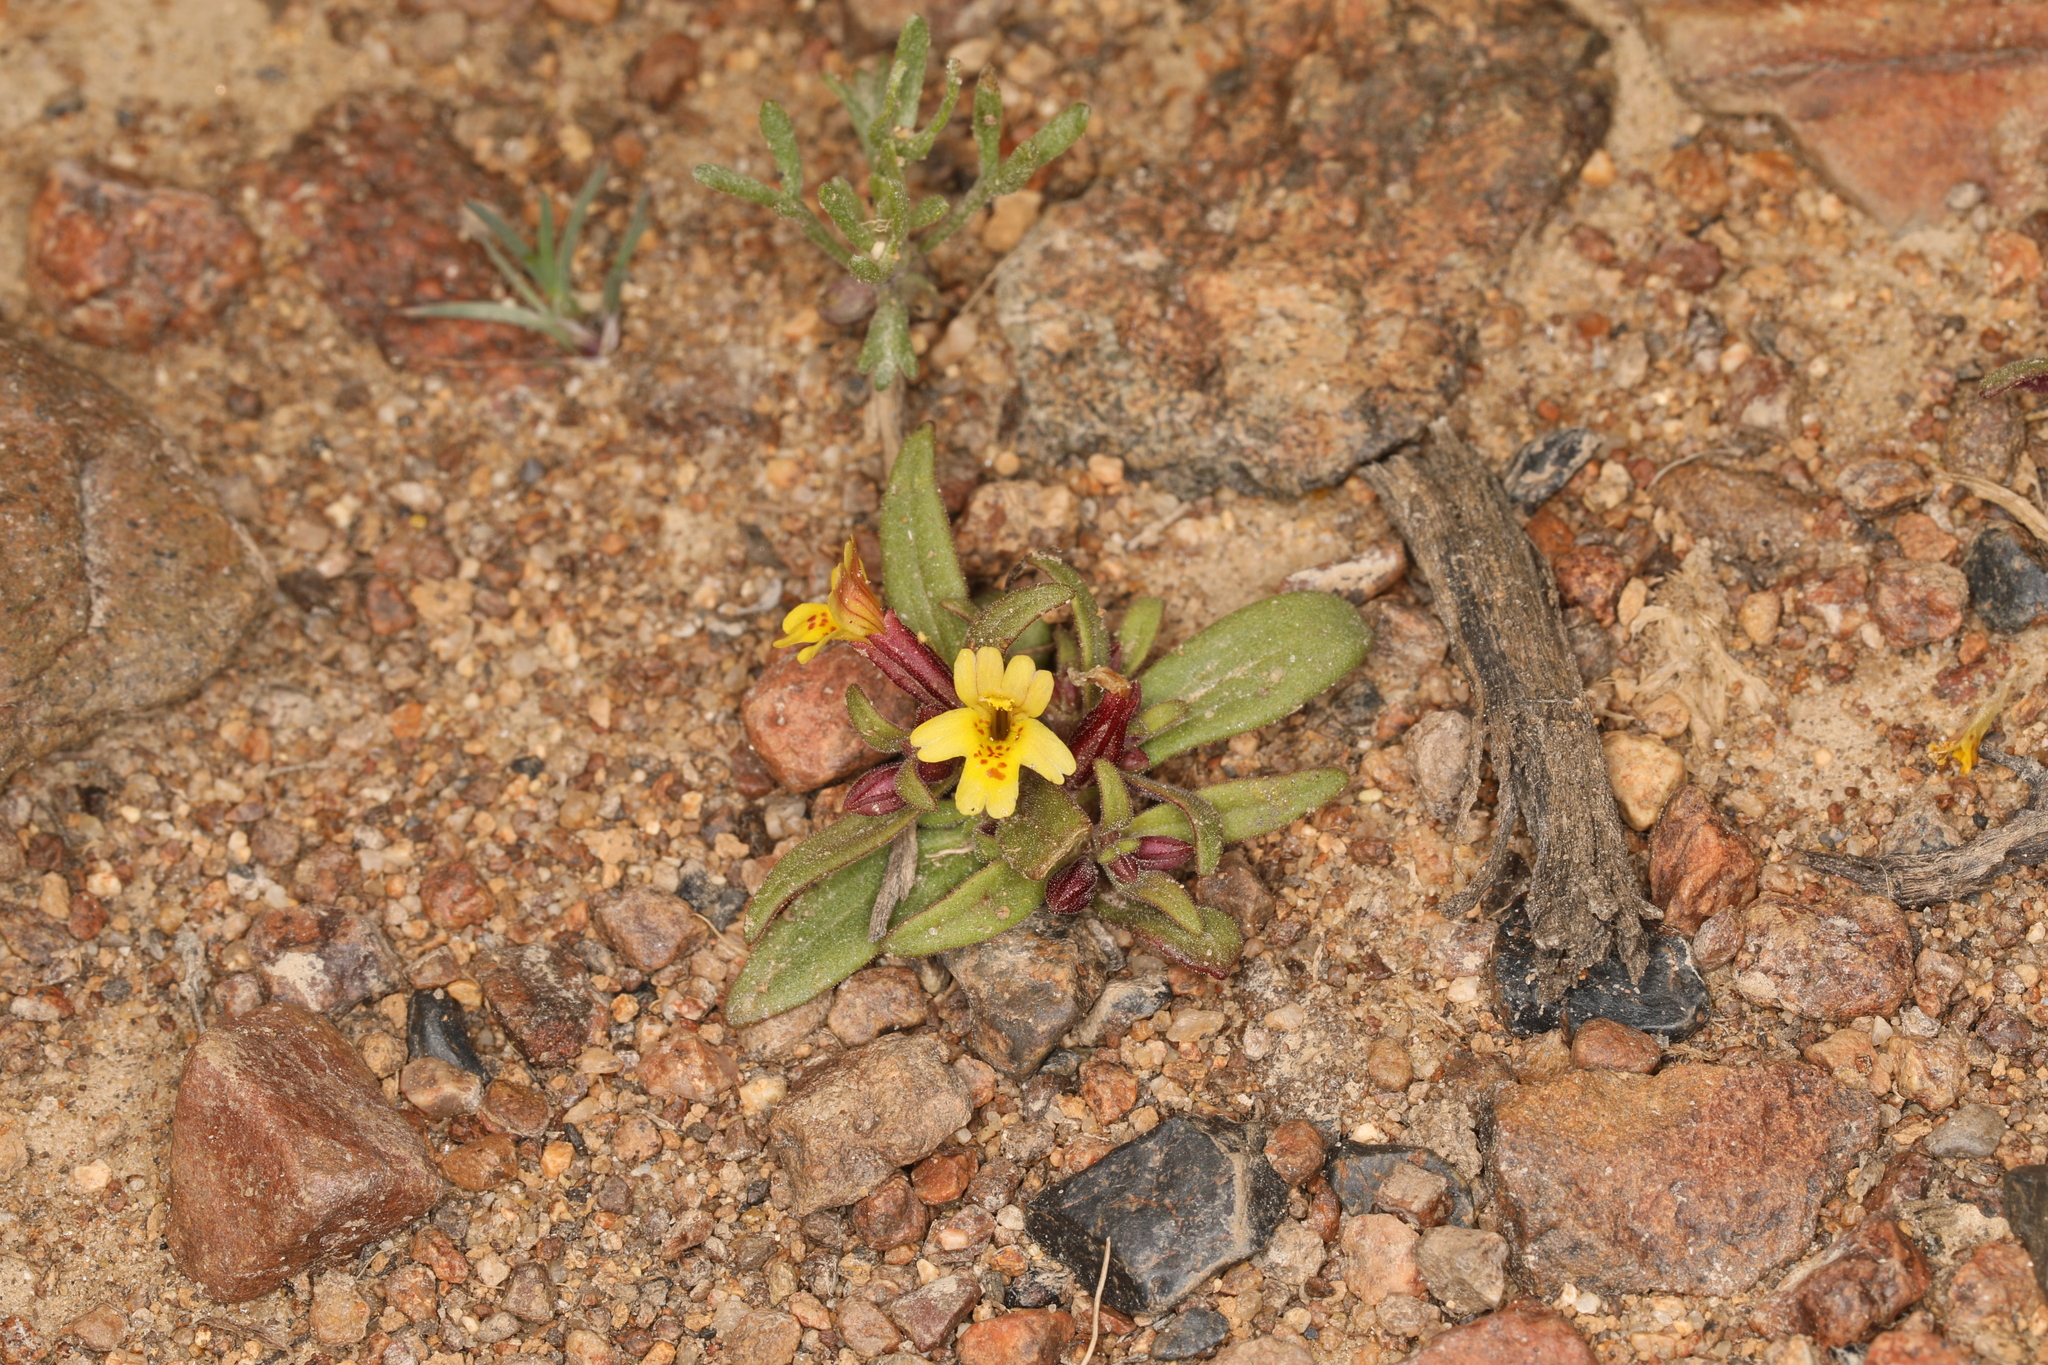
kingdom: Plantae
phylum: Tracheophyta
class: Magnoliopsida
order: Lamiales
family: Phrymaceae
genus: Erythranthe
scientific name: Erythranthe suksdorfii
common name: Suksdorf's monkeyflower
